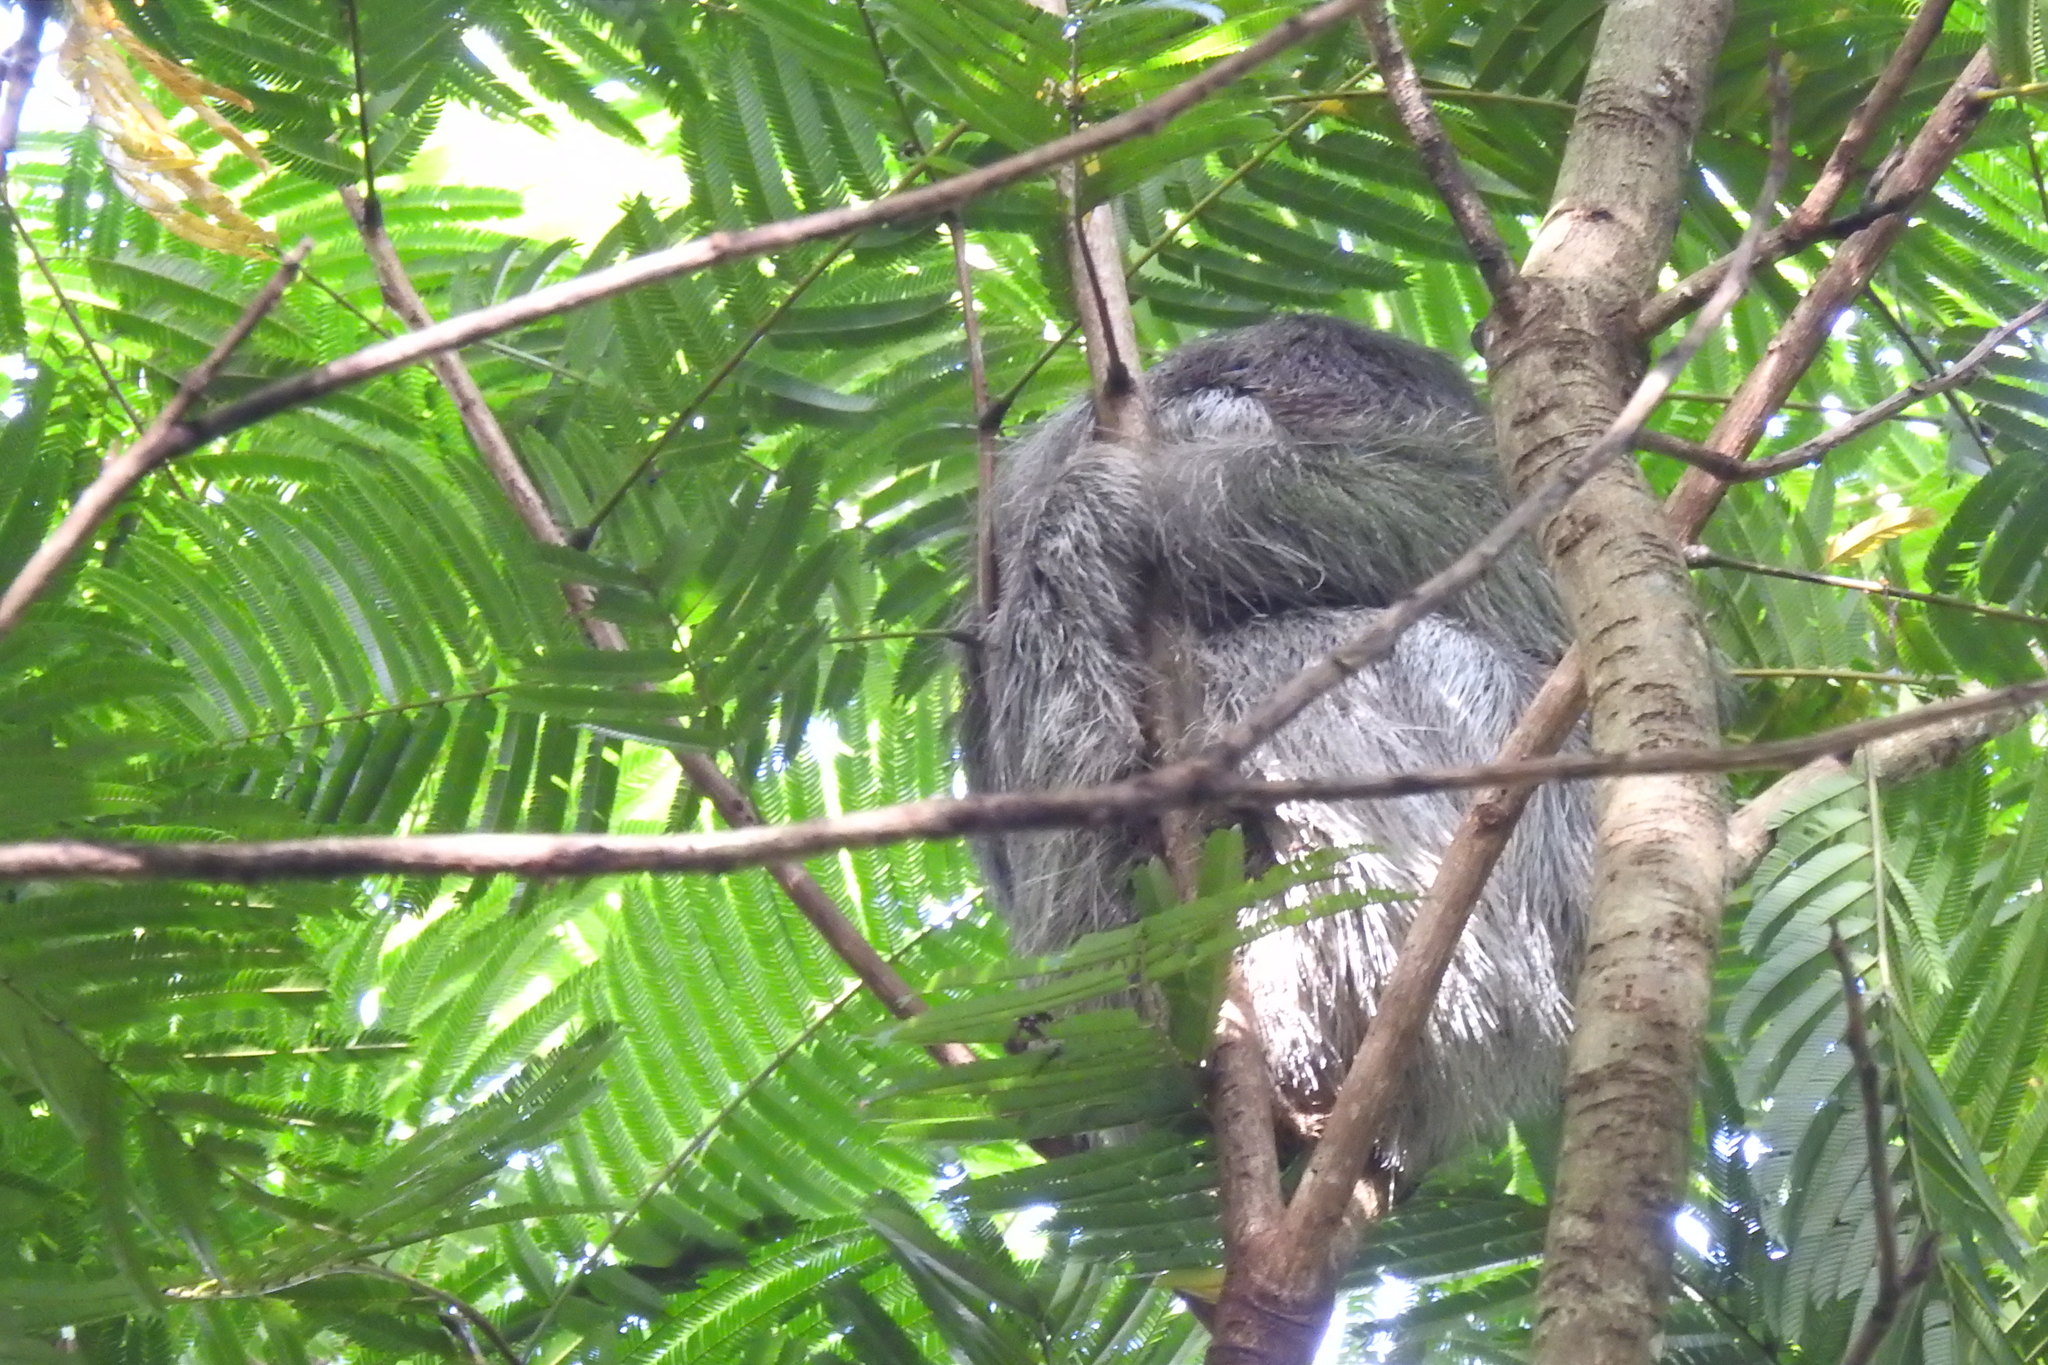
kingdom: Animalia
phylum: Chordata
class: Mammalia
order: Pilosa
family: Bradypodidae
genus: Bradypus
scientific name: Bradypus variegatus
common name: Brown-throated three-toed sloth
